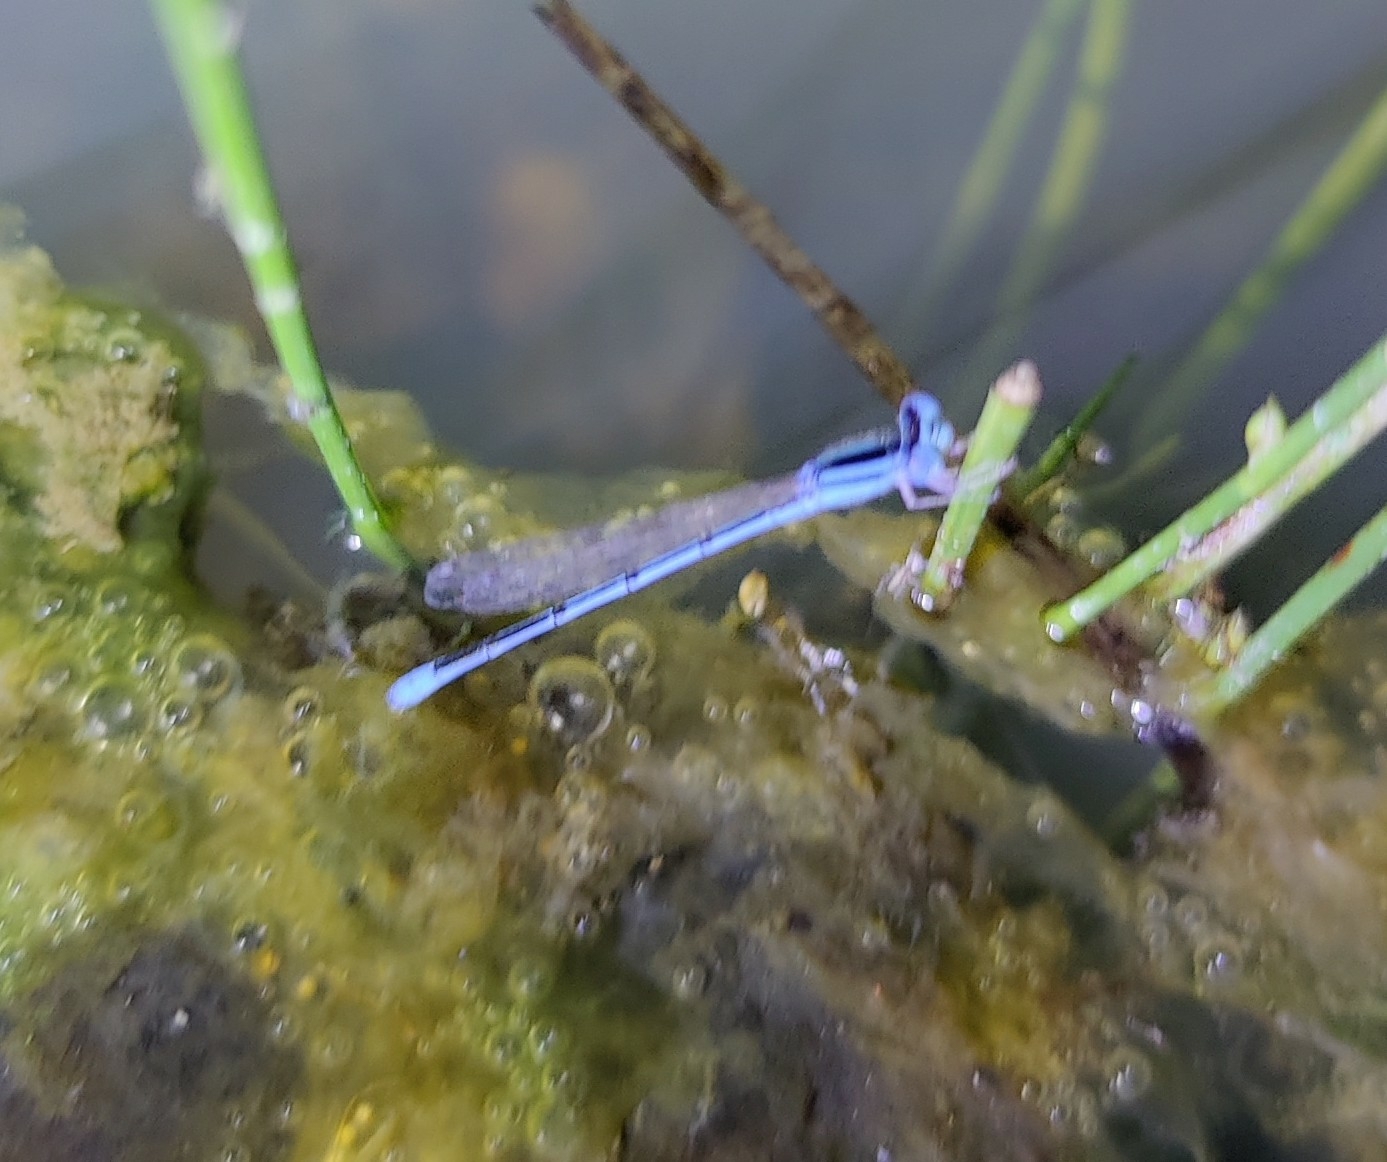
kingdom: Animalia
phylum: Arthropoda
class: Insecta
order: Odonata
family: Coenagrionidae
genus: Amphiallagma
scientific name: Amphiallagma parvum
